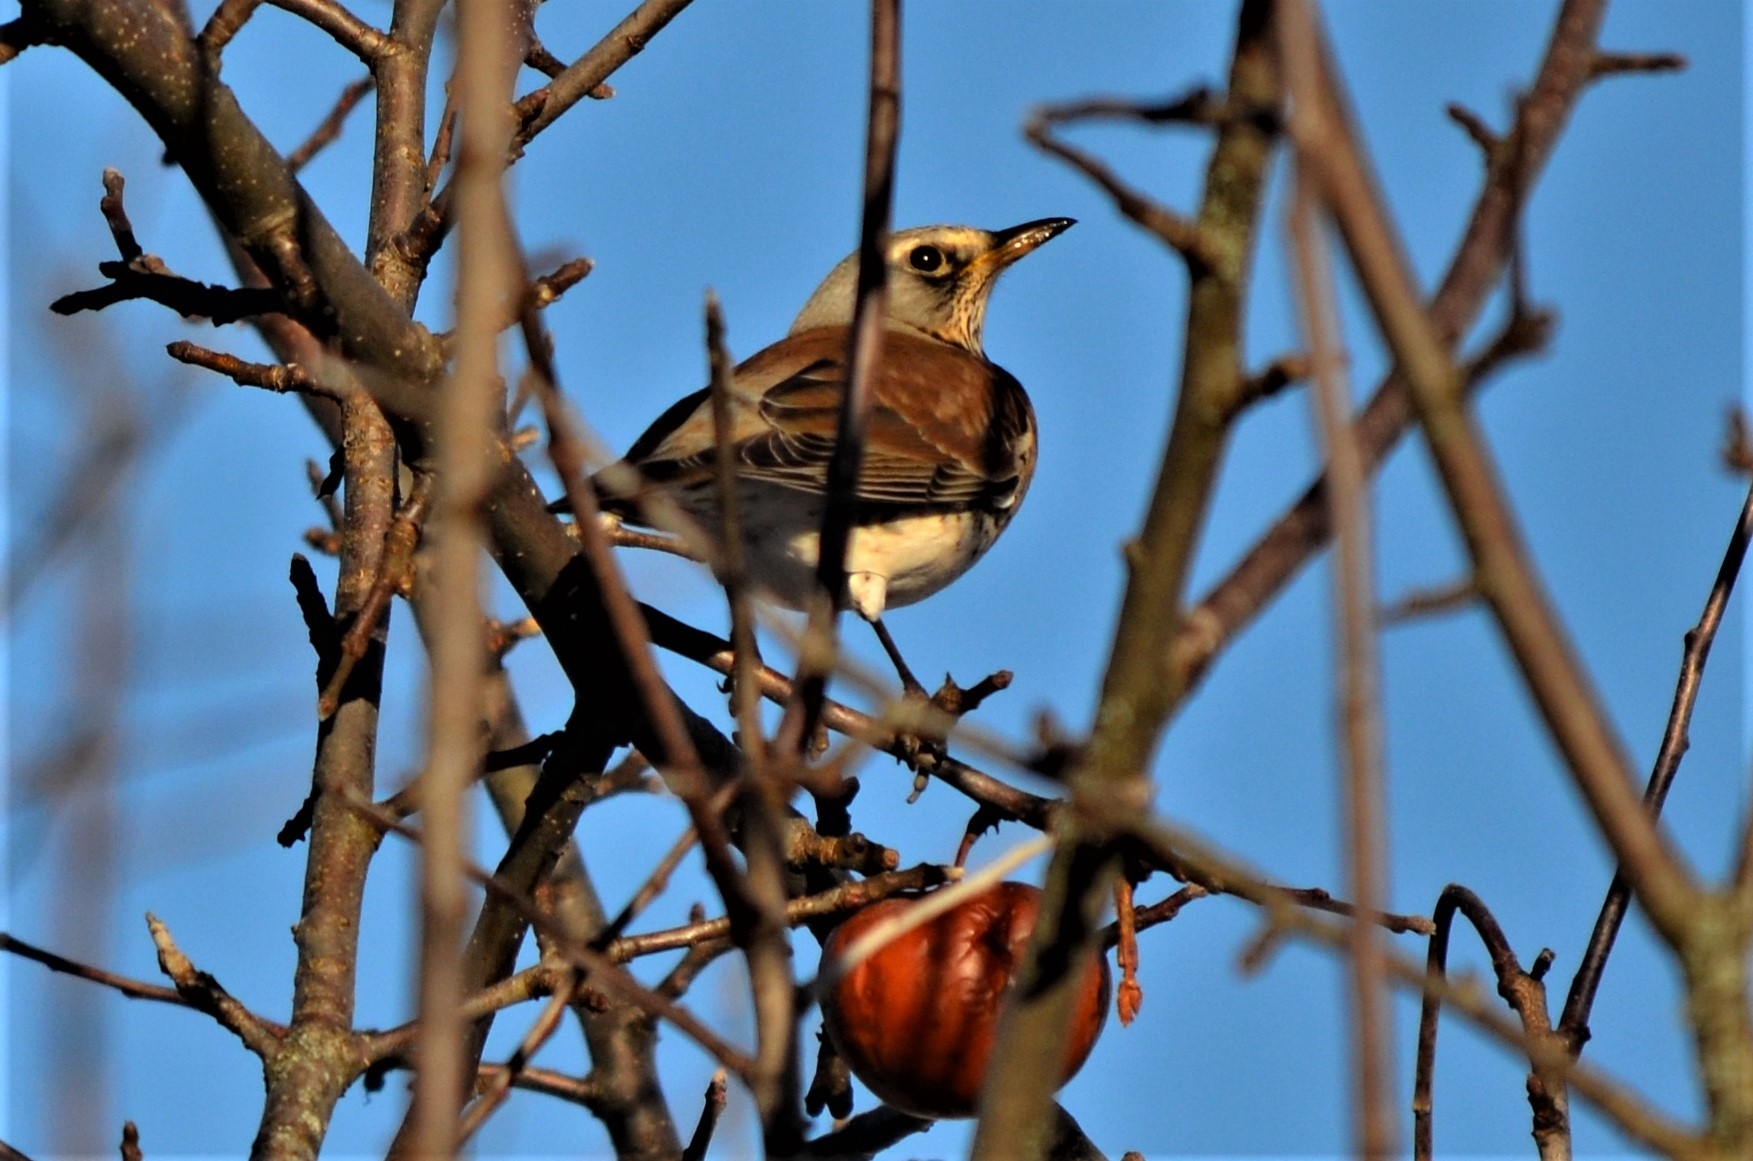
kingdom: Animalia
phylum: Chordata
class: Aves
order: Passeriformes
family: Turdidae
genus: Turdus
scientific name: Turdus pilaris
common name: Fieldfare
